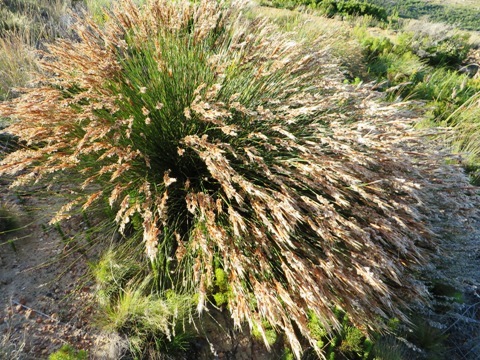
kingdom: Plantae
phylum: Tracheophyta
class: Liliopsida
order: Poales
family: Restionaceae
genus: Hypodiscus
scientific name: Hypodiscus argenteus
